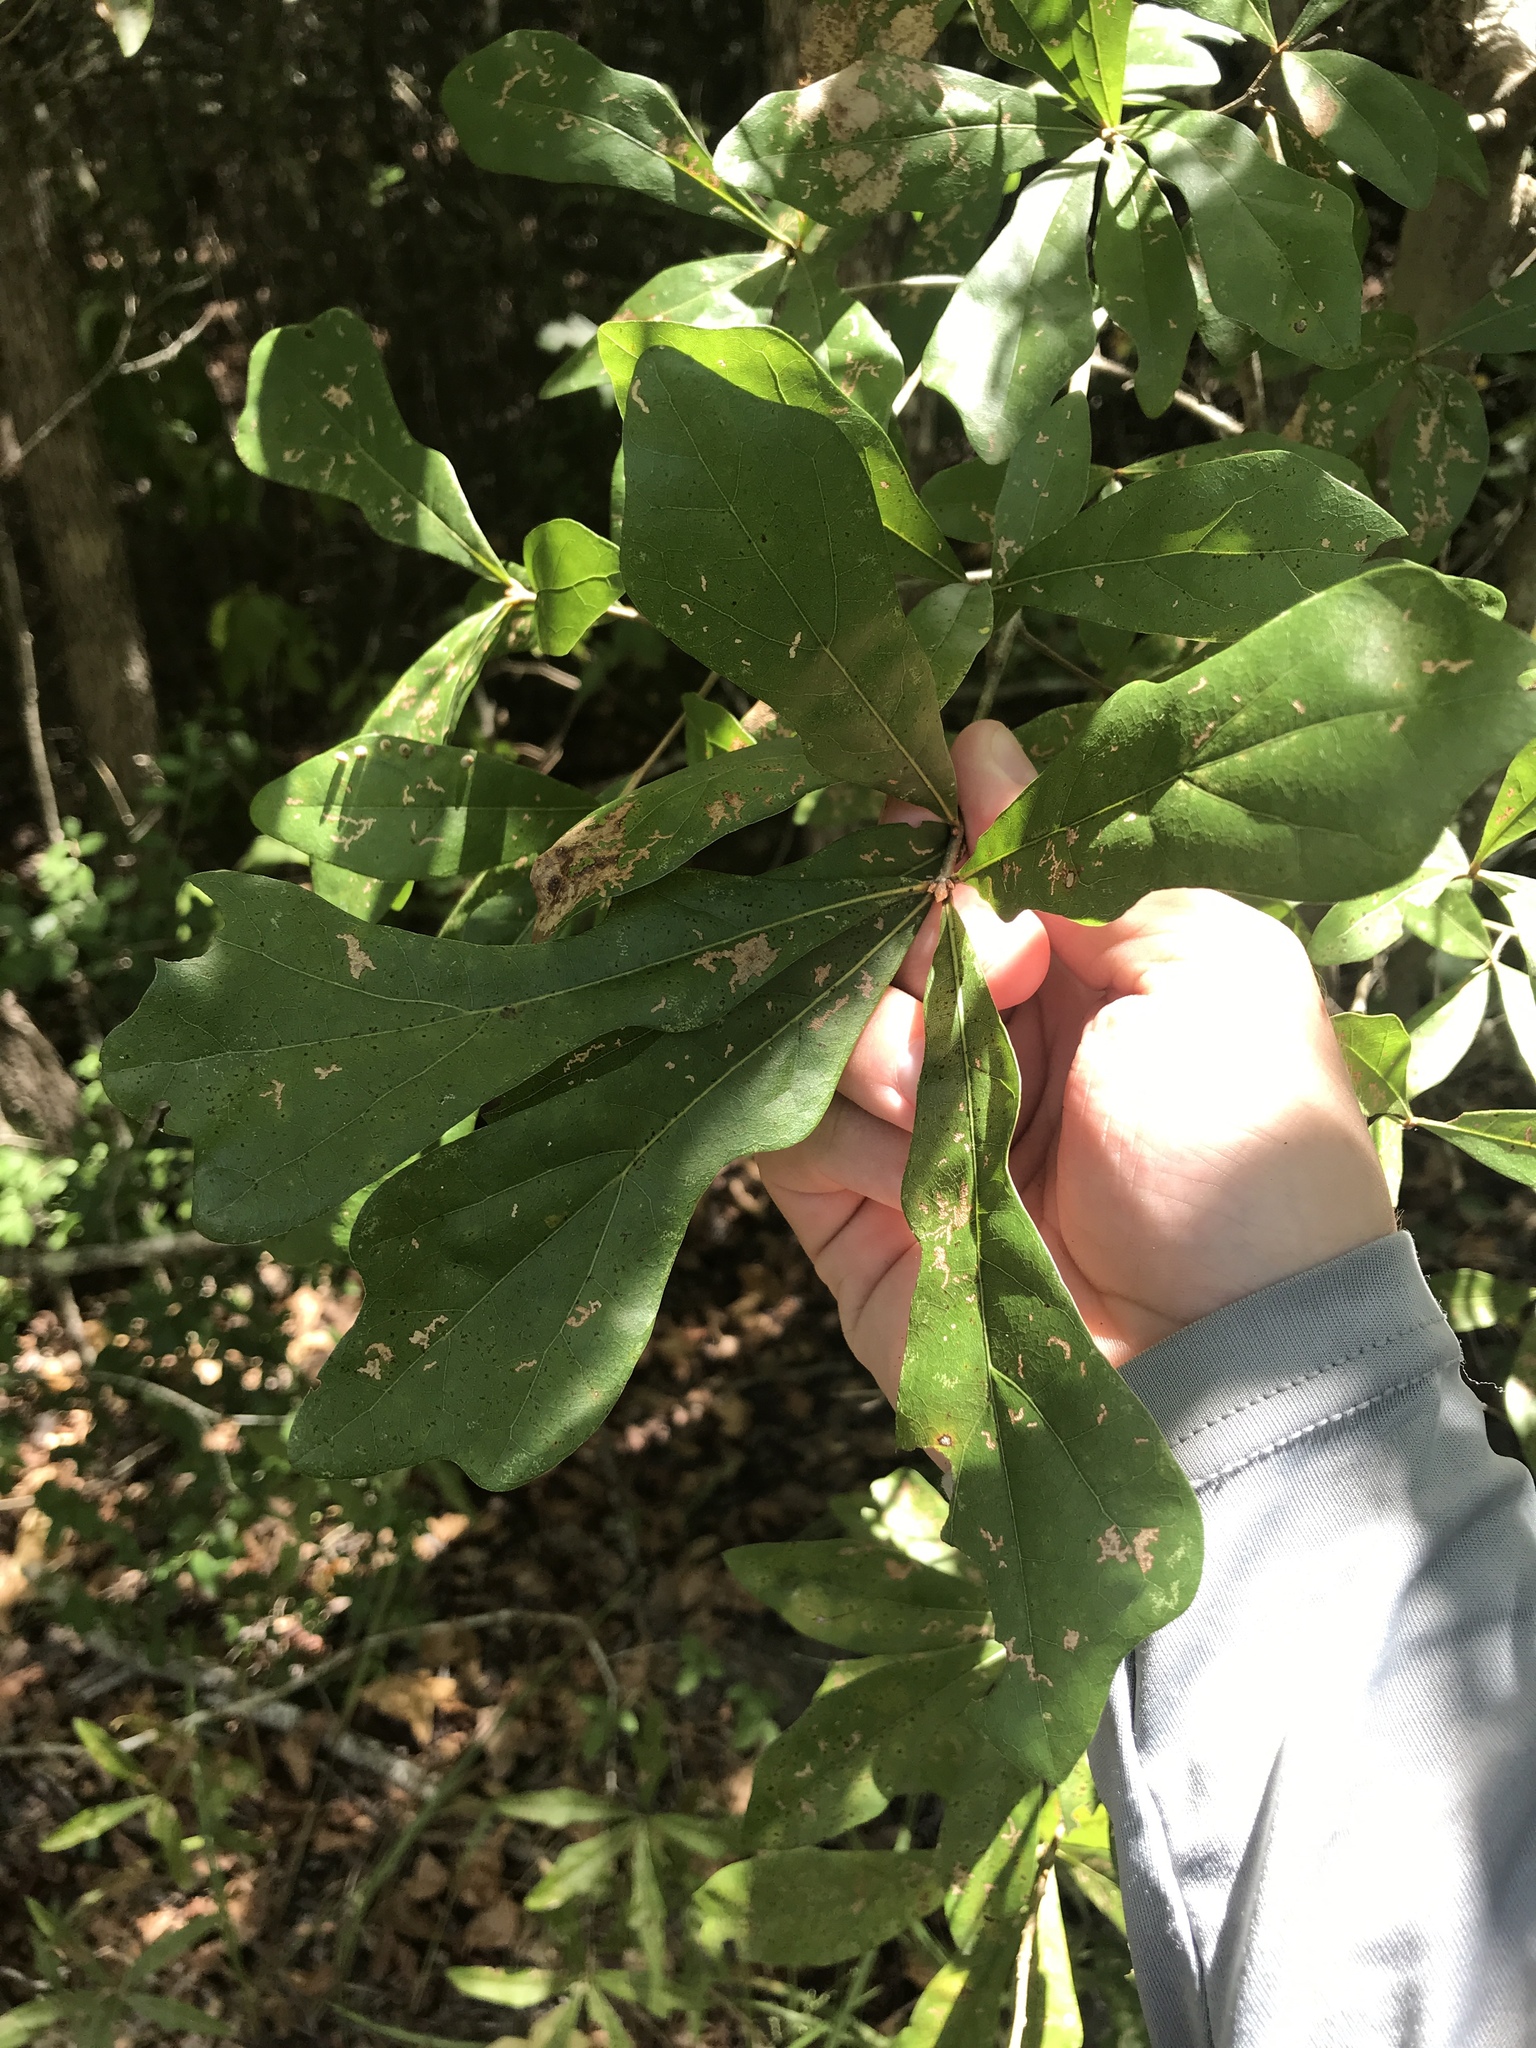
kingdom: Plantae
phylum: Tracheophyta
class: Magnoliopsida
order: Fagales
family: Fagaceae
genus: Quercus
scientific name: Quercus nigra
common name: Water oak
